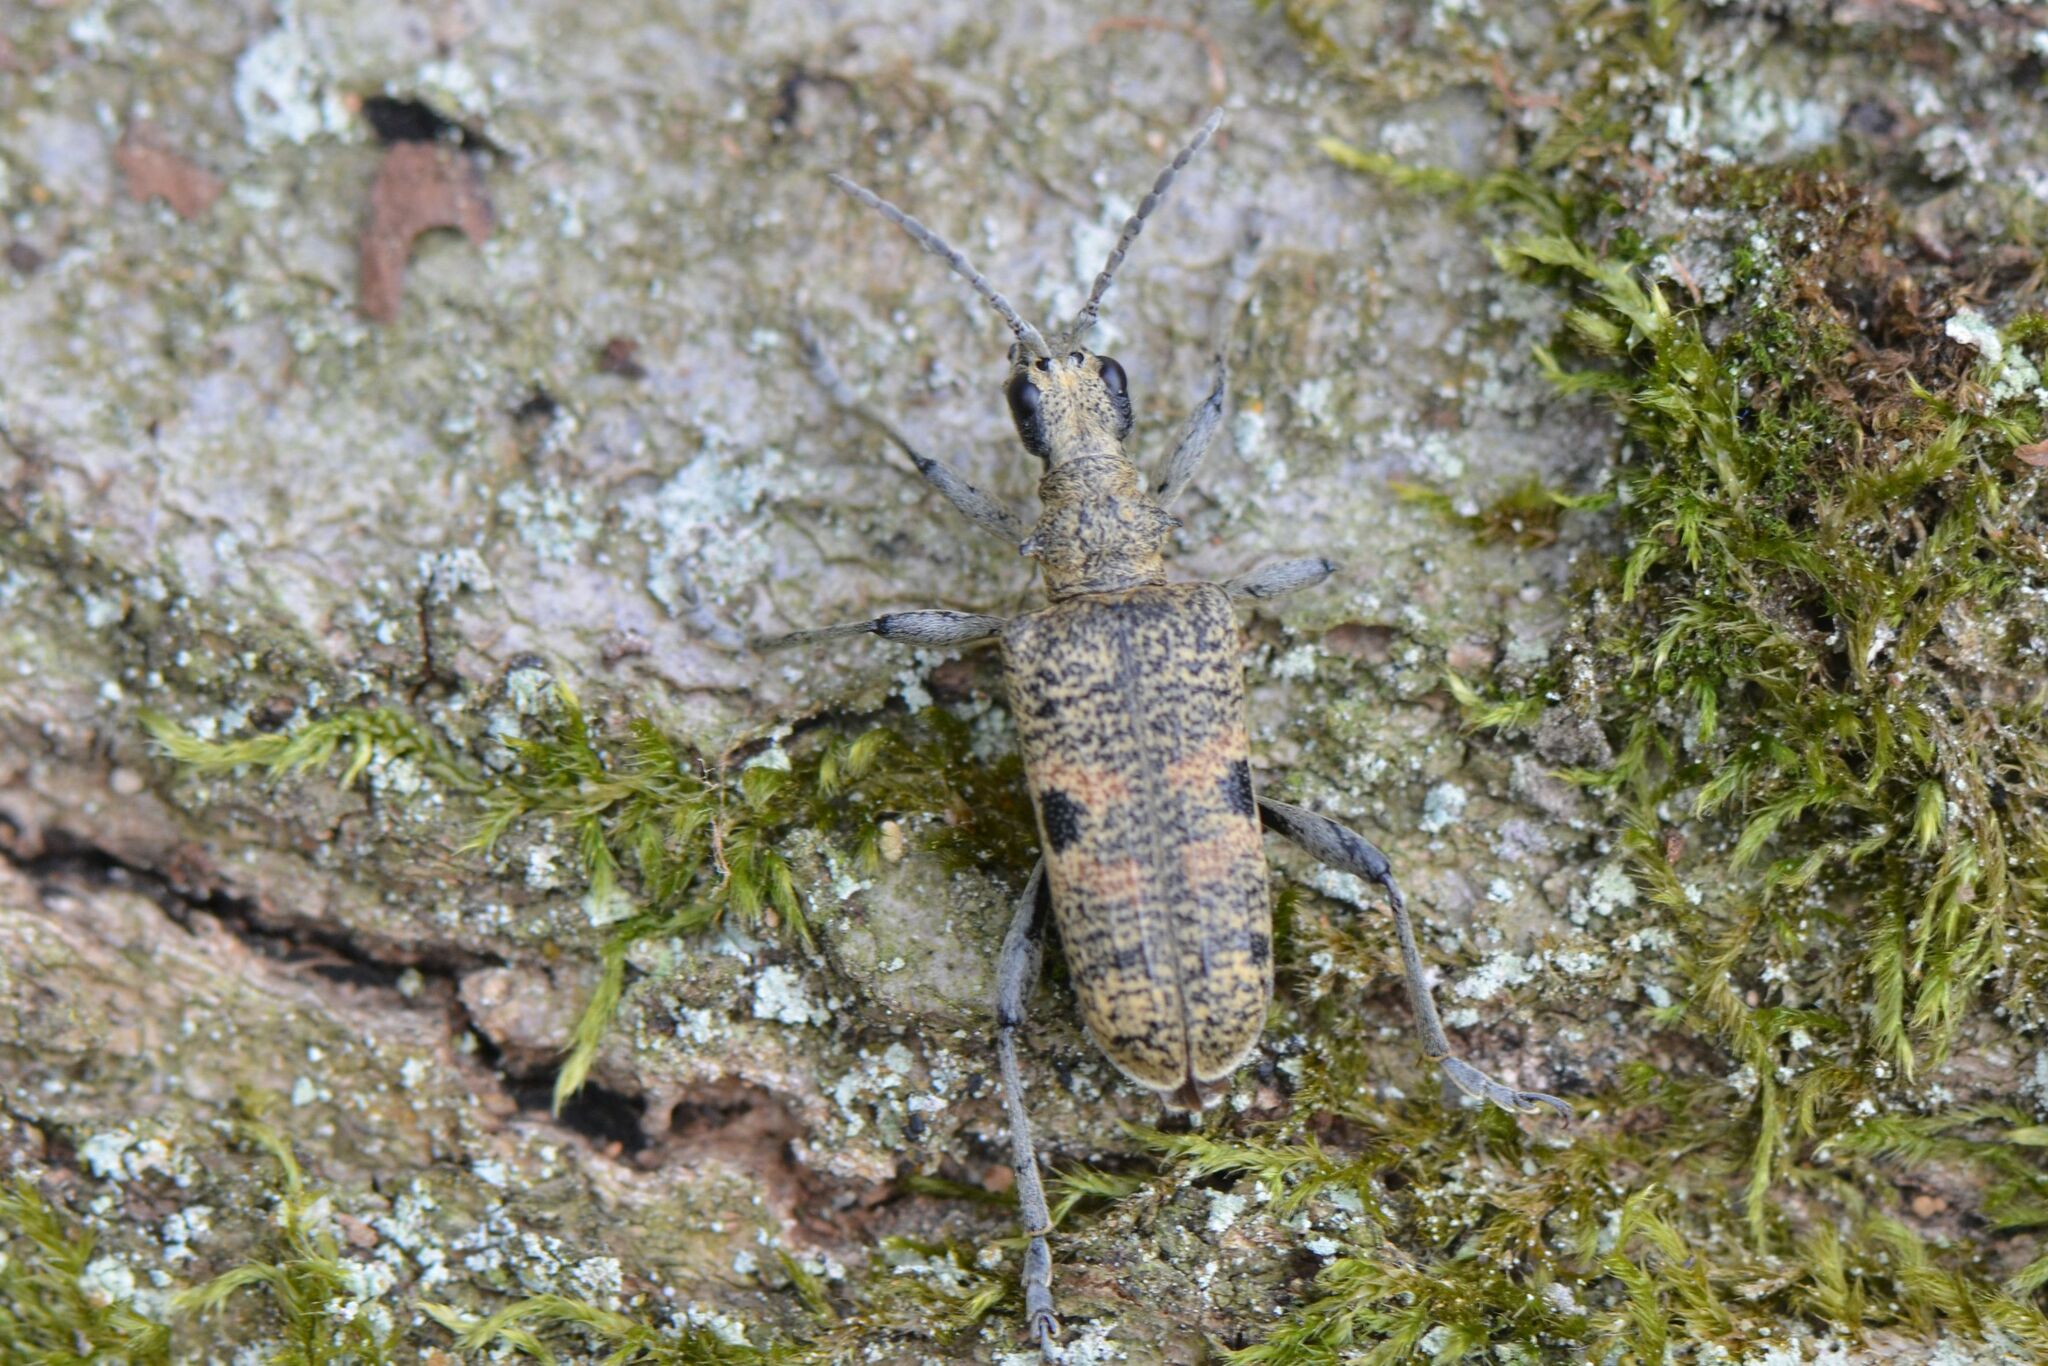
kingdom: Animalia
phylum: Arthropoda
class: Insecta
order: Coleoptera
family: Cerambycidae
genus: Rhagium
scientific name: Rhagium mordax
